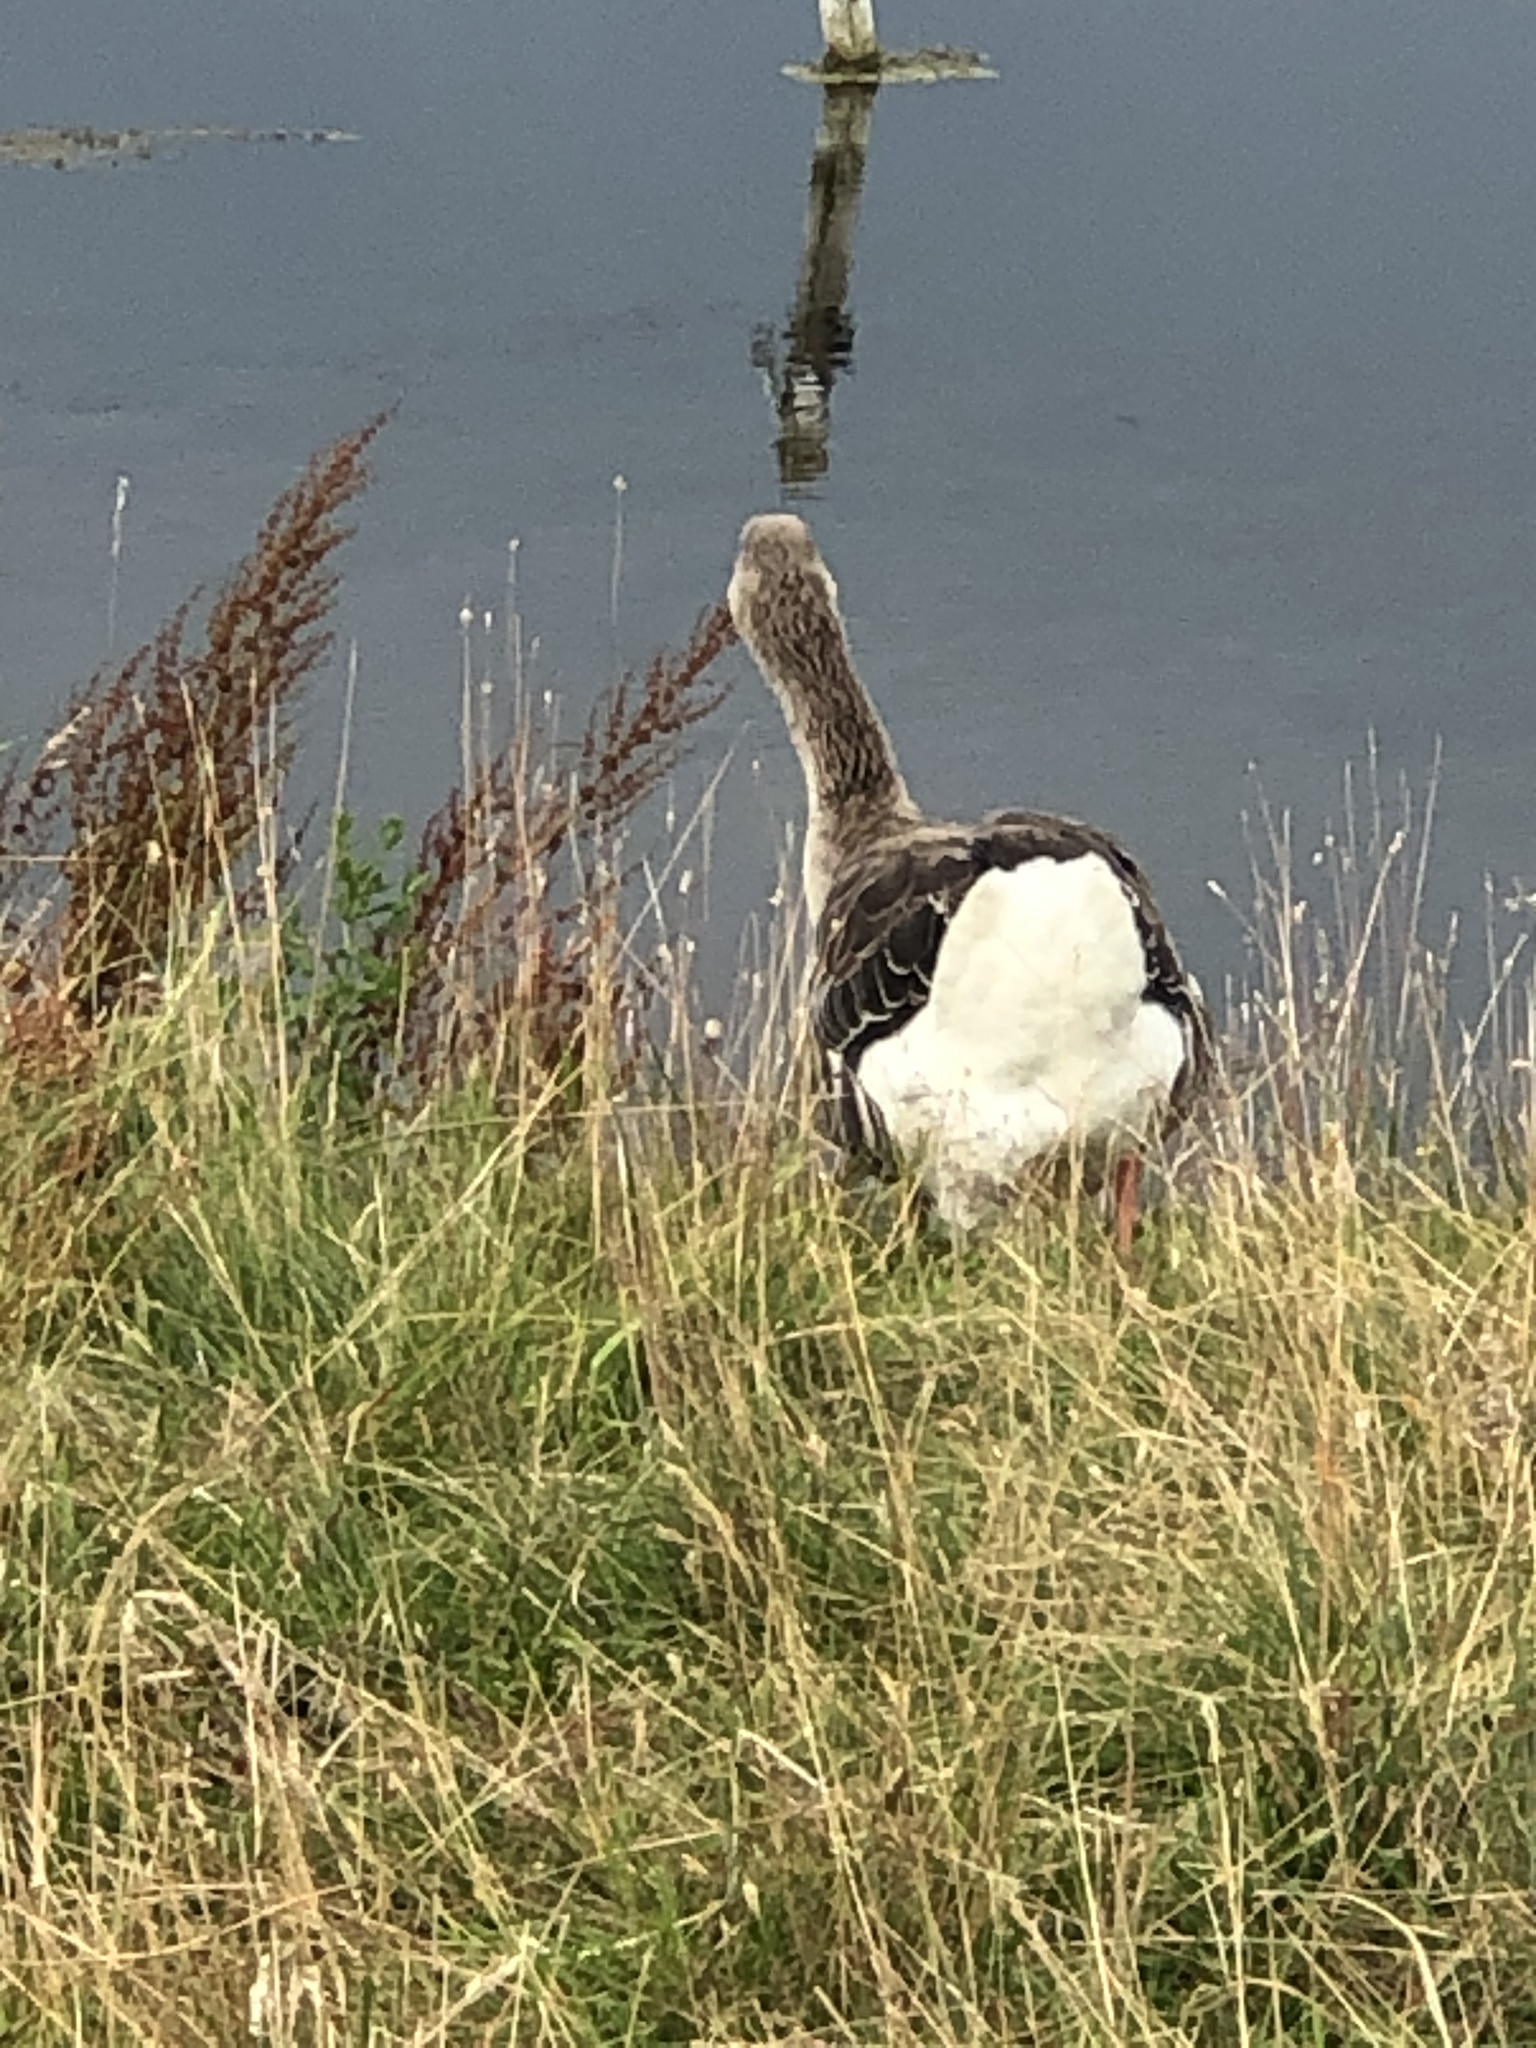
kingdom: Animalia
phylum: Chordata
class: Aves
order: Anseriformes
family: Anatidae
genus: Anser
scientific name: Anser anser
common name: Greylag goose
